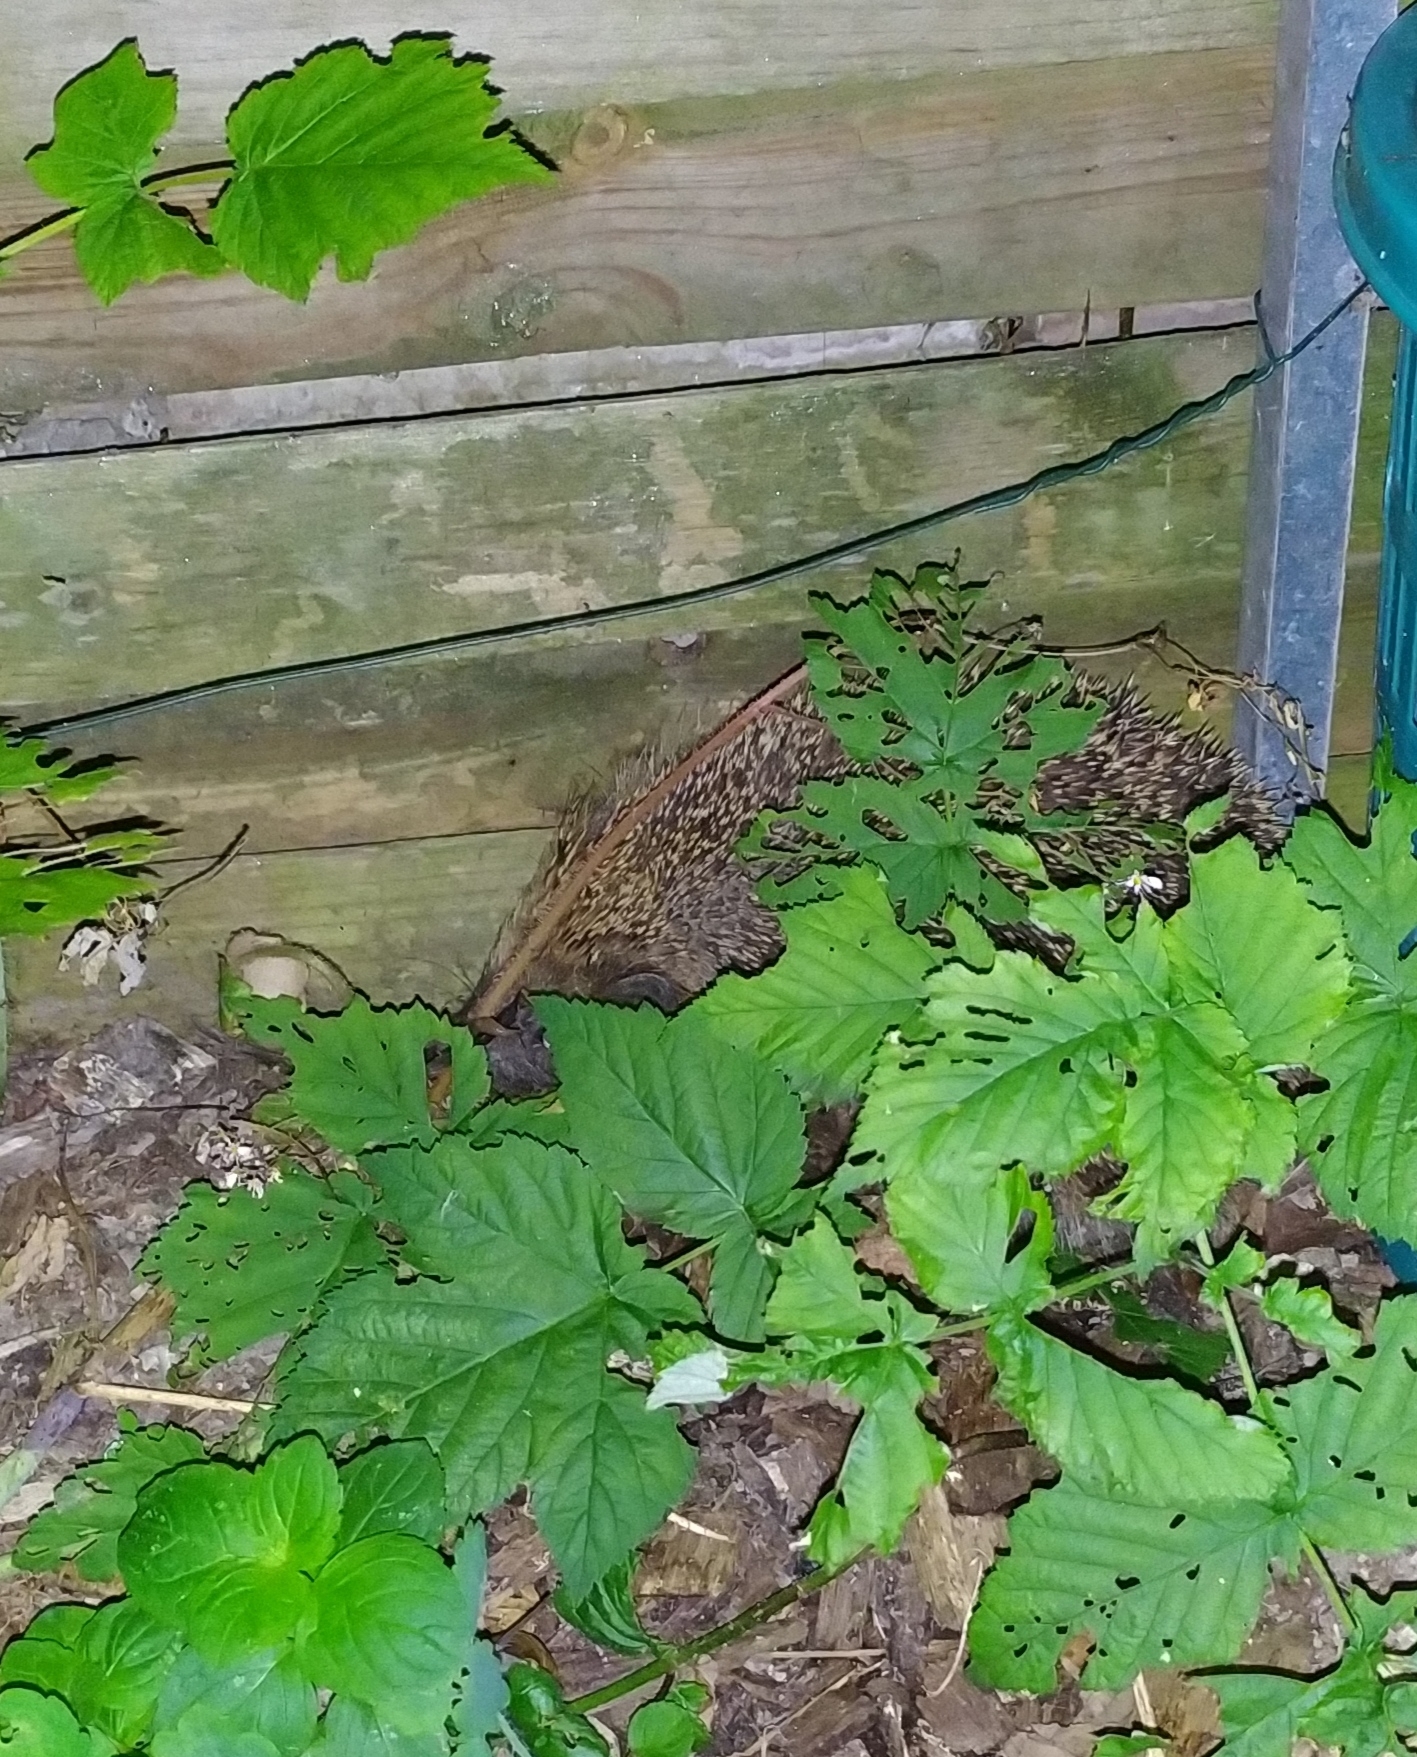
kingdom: Animalia
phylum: Chordata
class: Mammalia
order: Erinaceomorpha
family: Erinaceidae
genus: Erinaceus
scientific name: Erinaceus europaeus
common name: West european hedgehog
